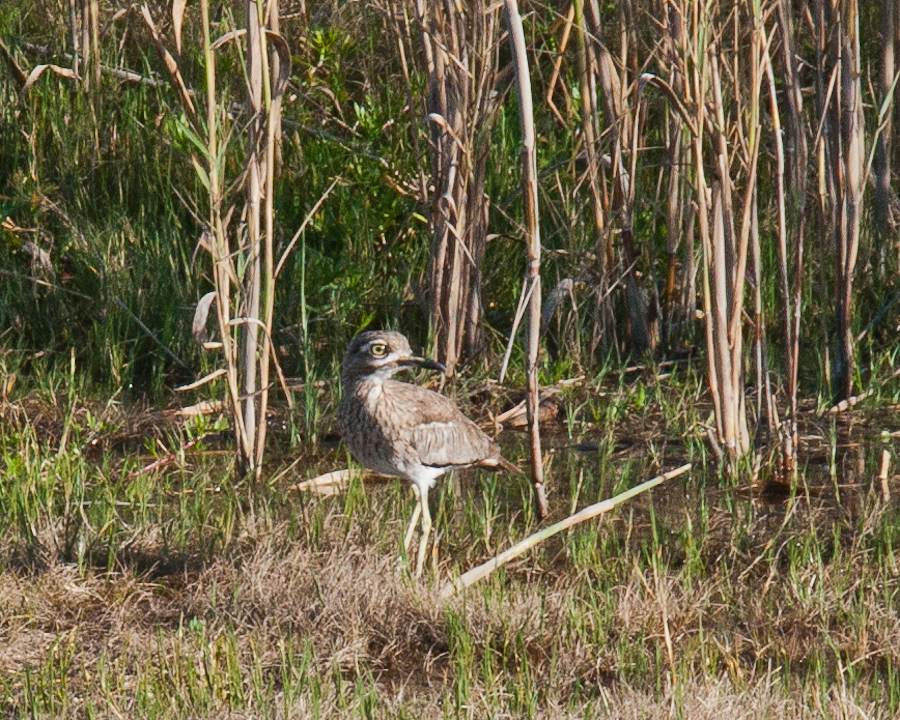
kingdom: Animalia
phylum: Chordata
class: Aves
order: Charadriiformes
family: Burhinidae
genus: Burhinus
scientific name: Burhinus vermiculatus
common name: Water thick-knee
